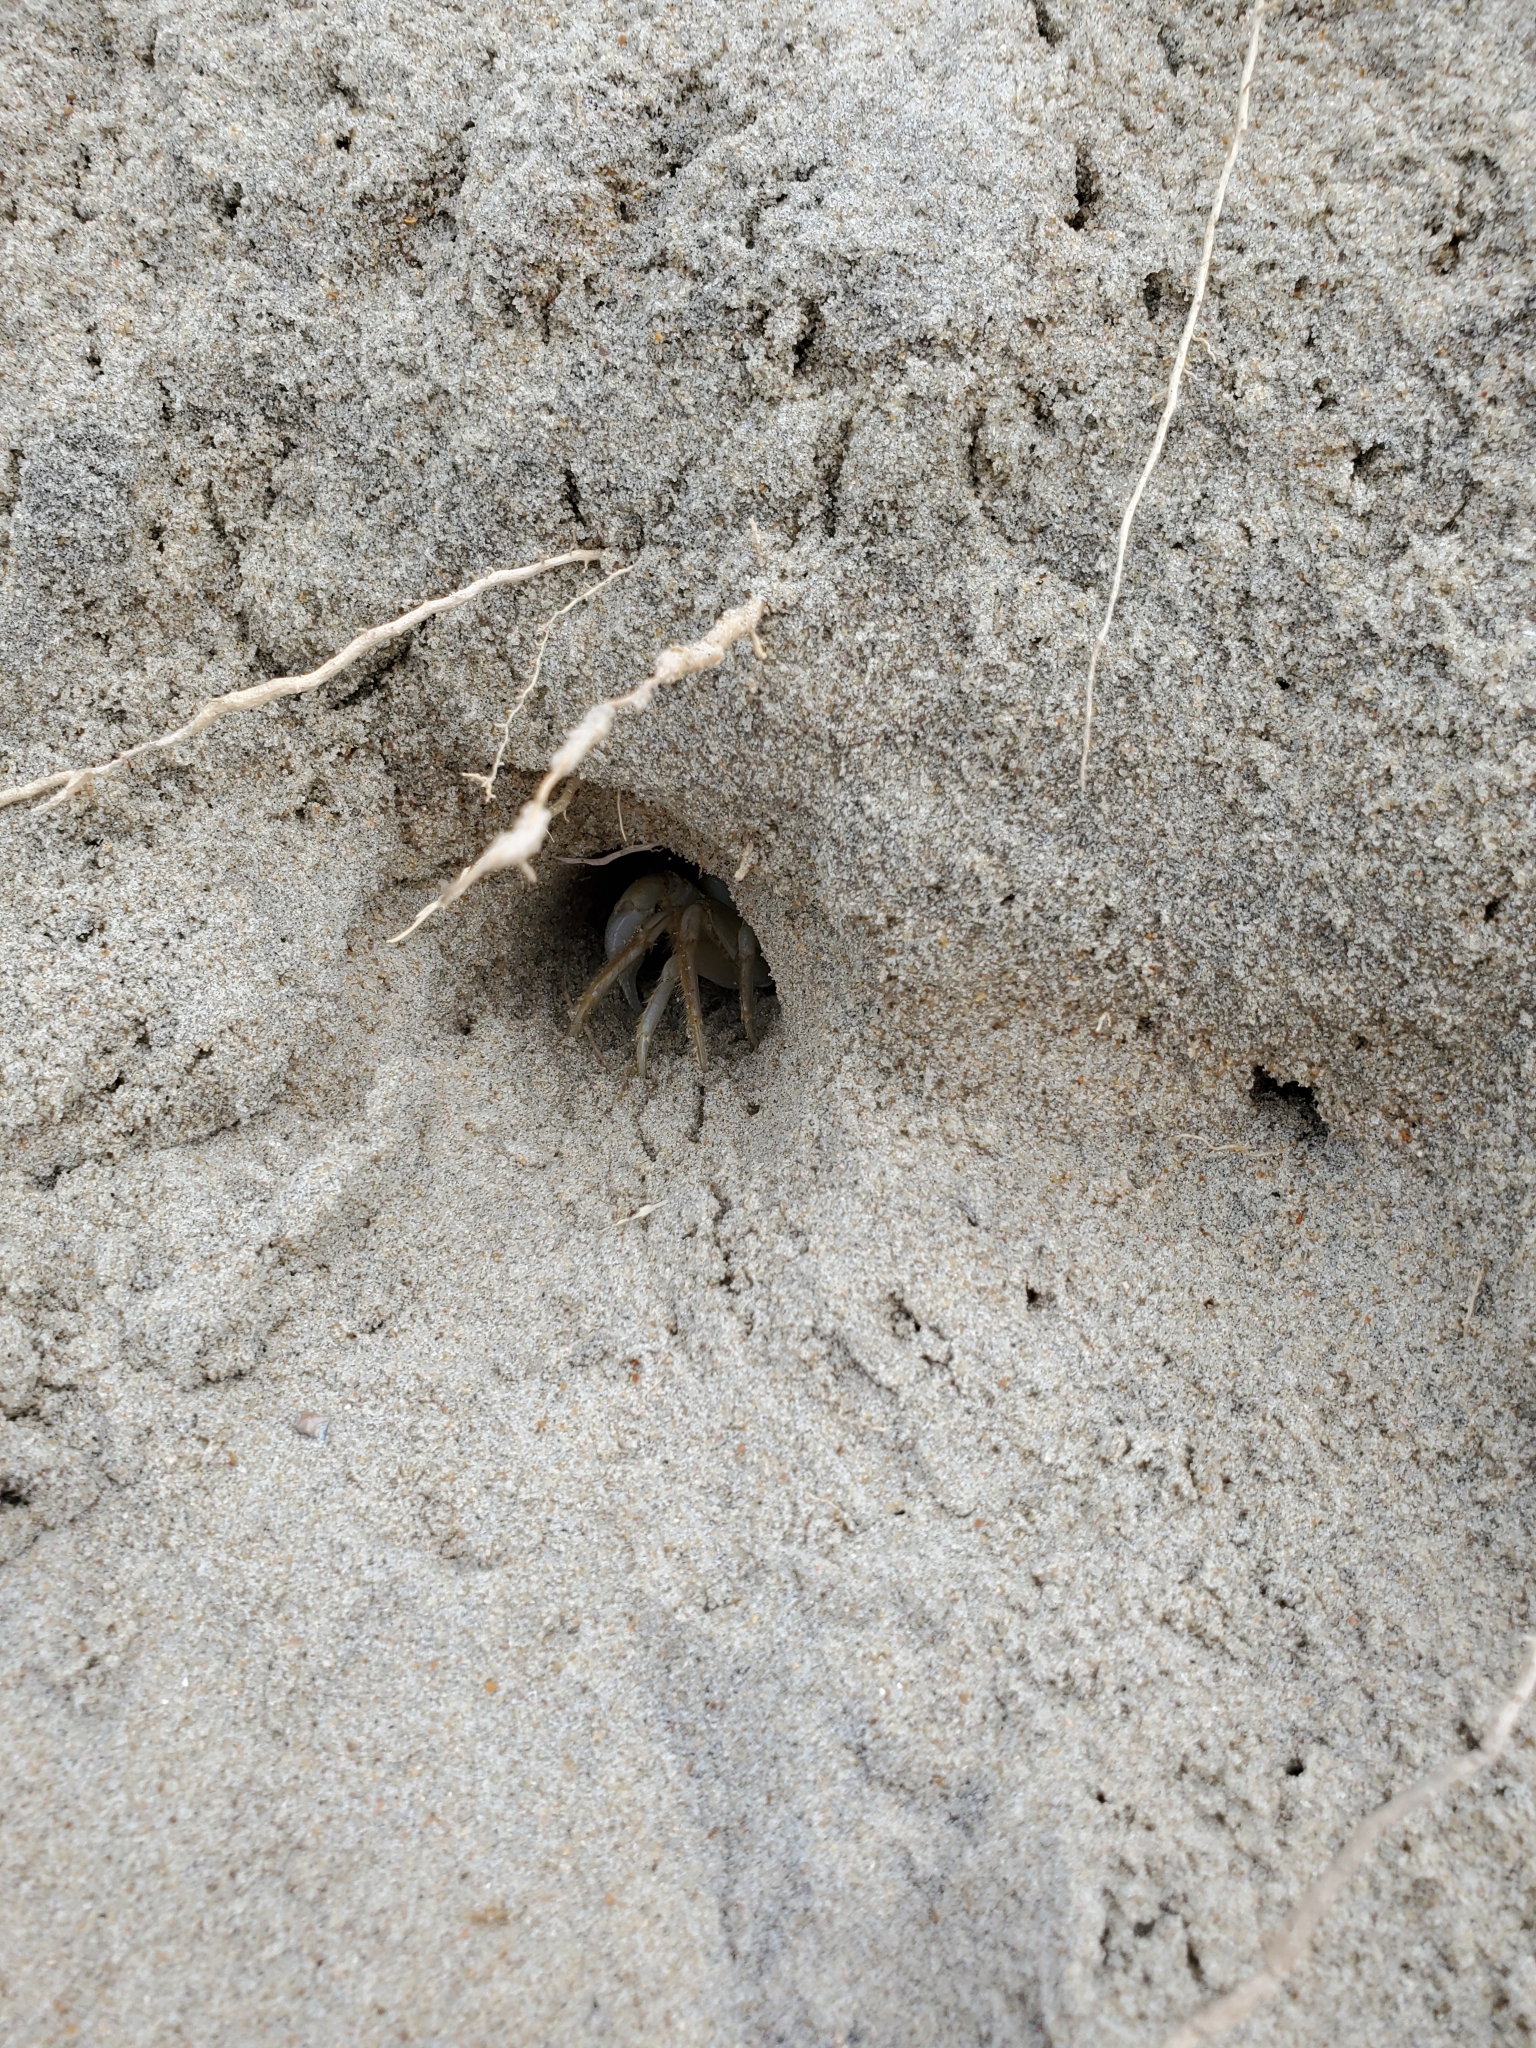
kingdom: Animalia
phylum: Arthropoda
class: Malacostraca
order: Decapoda
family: Ocypodidae
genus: Ocypode
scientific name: Ocypode quadrata
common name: Ghost crab
